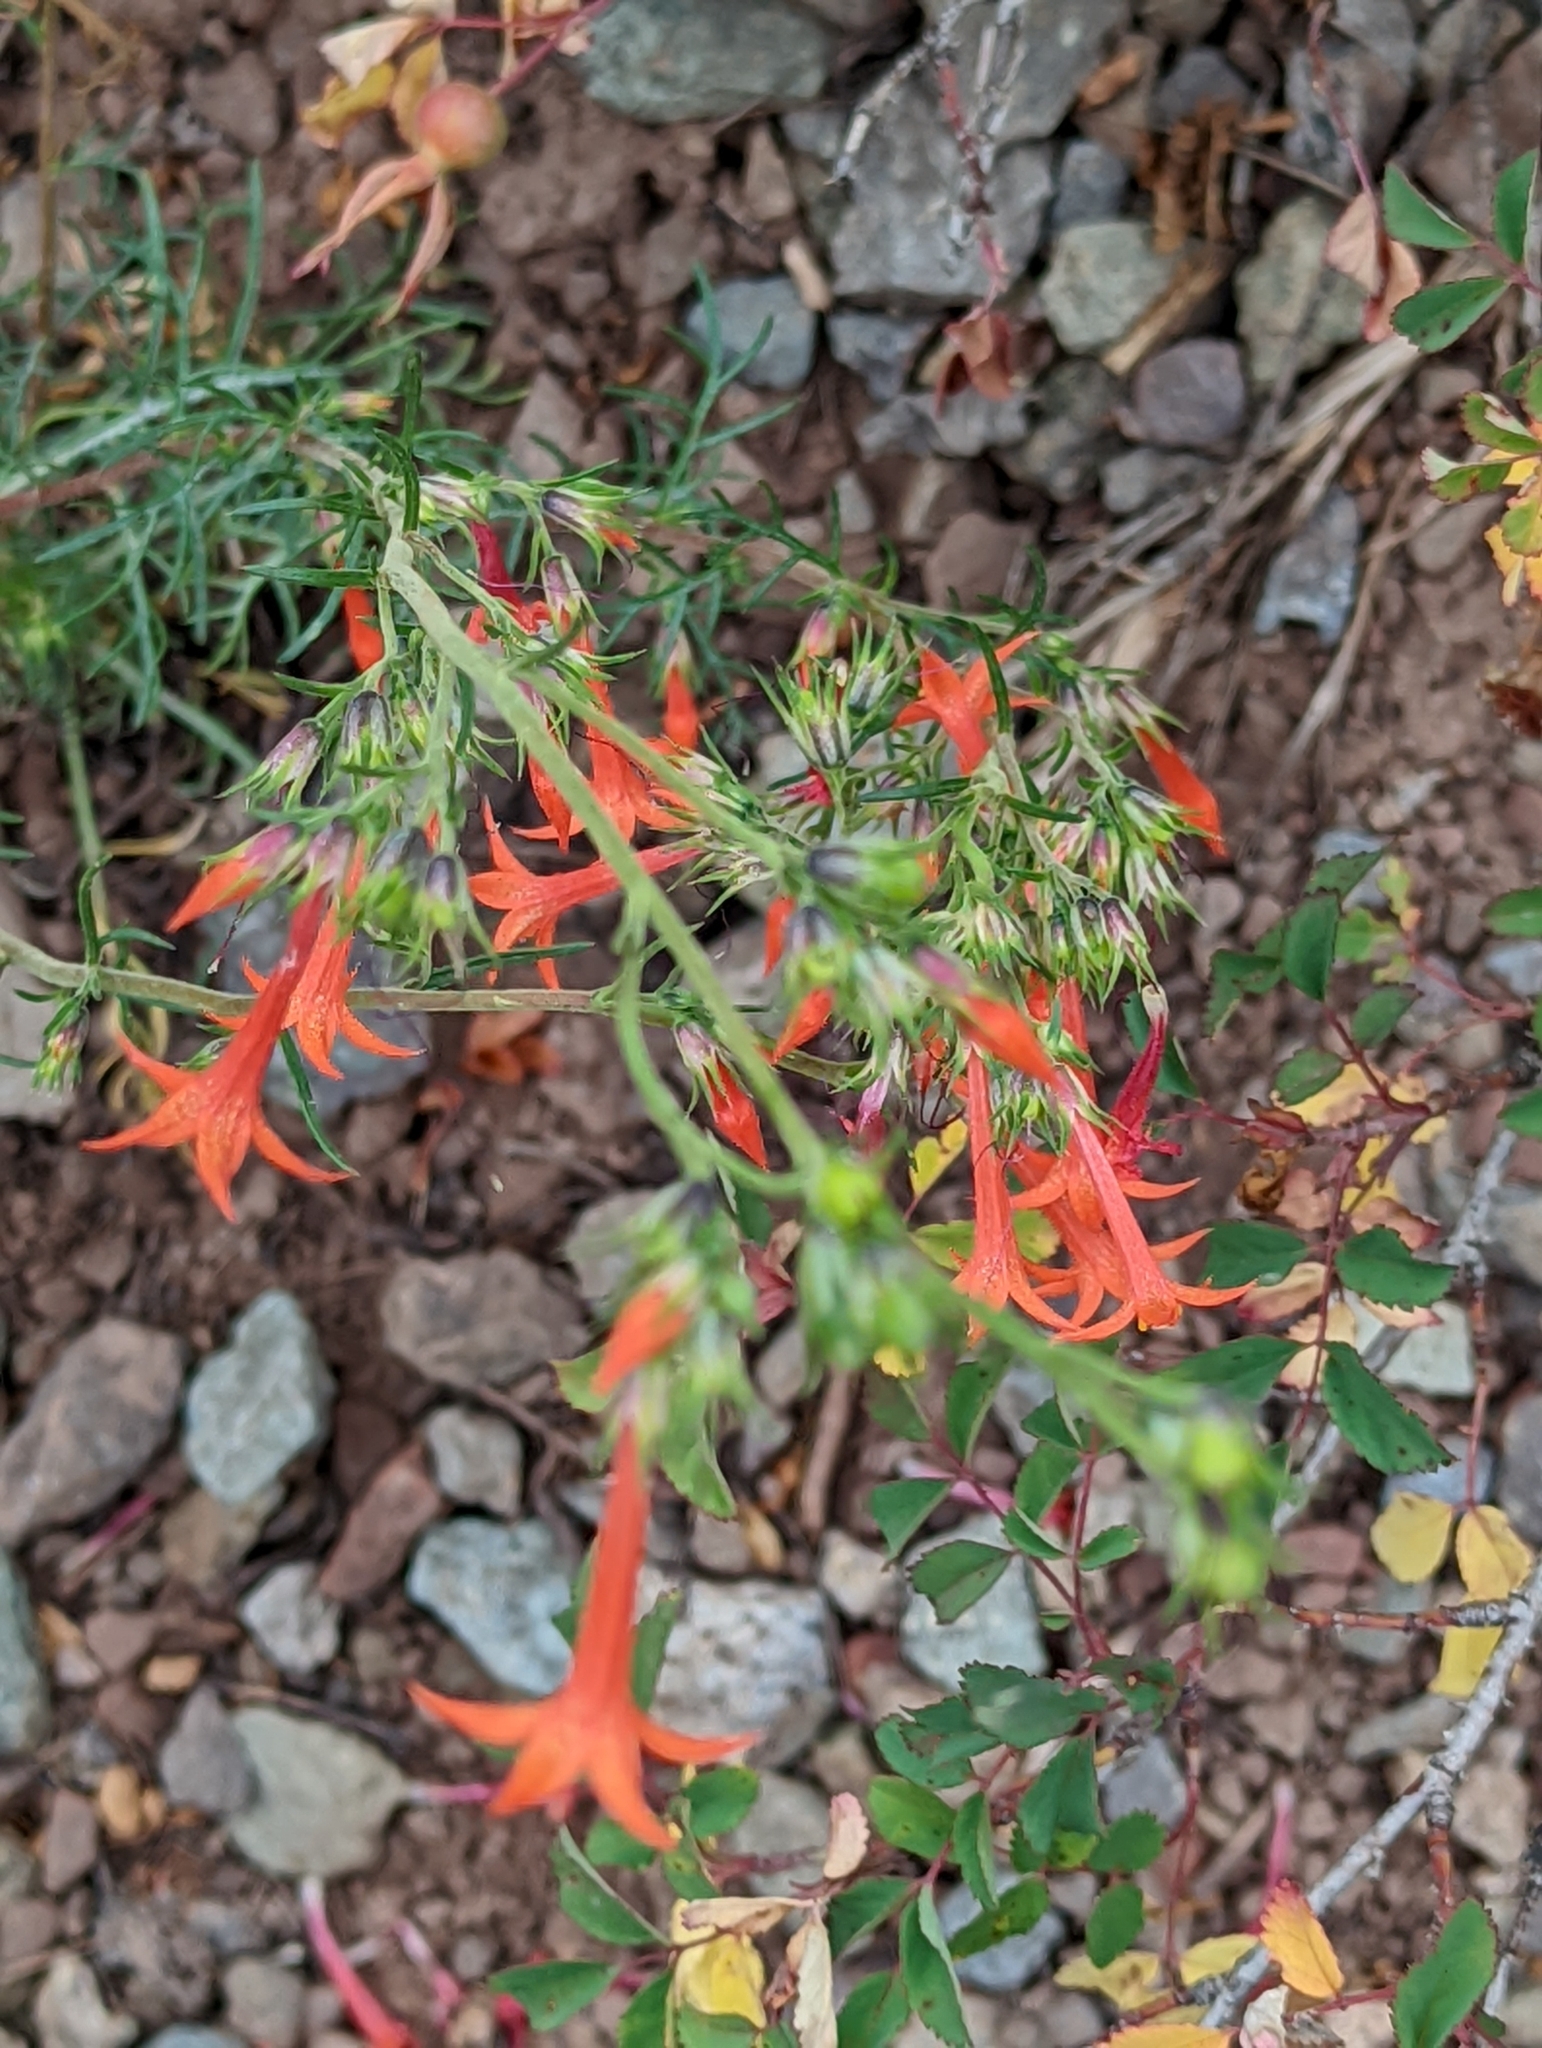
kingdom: Plantae
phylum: Tracheophyta
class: Magnoliopsida
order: Ericales
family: Polemoniaceae
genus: Ipomopsis
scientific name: Ipomopsis aggregata
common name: Scarlet gilia
